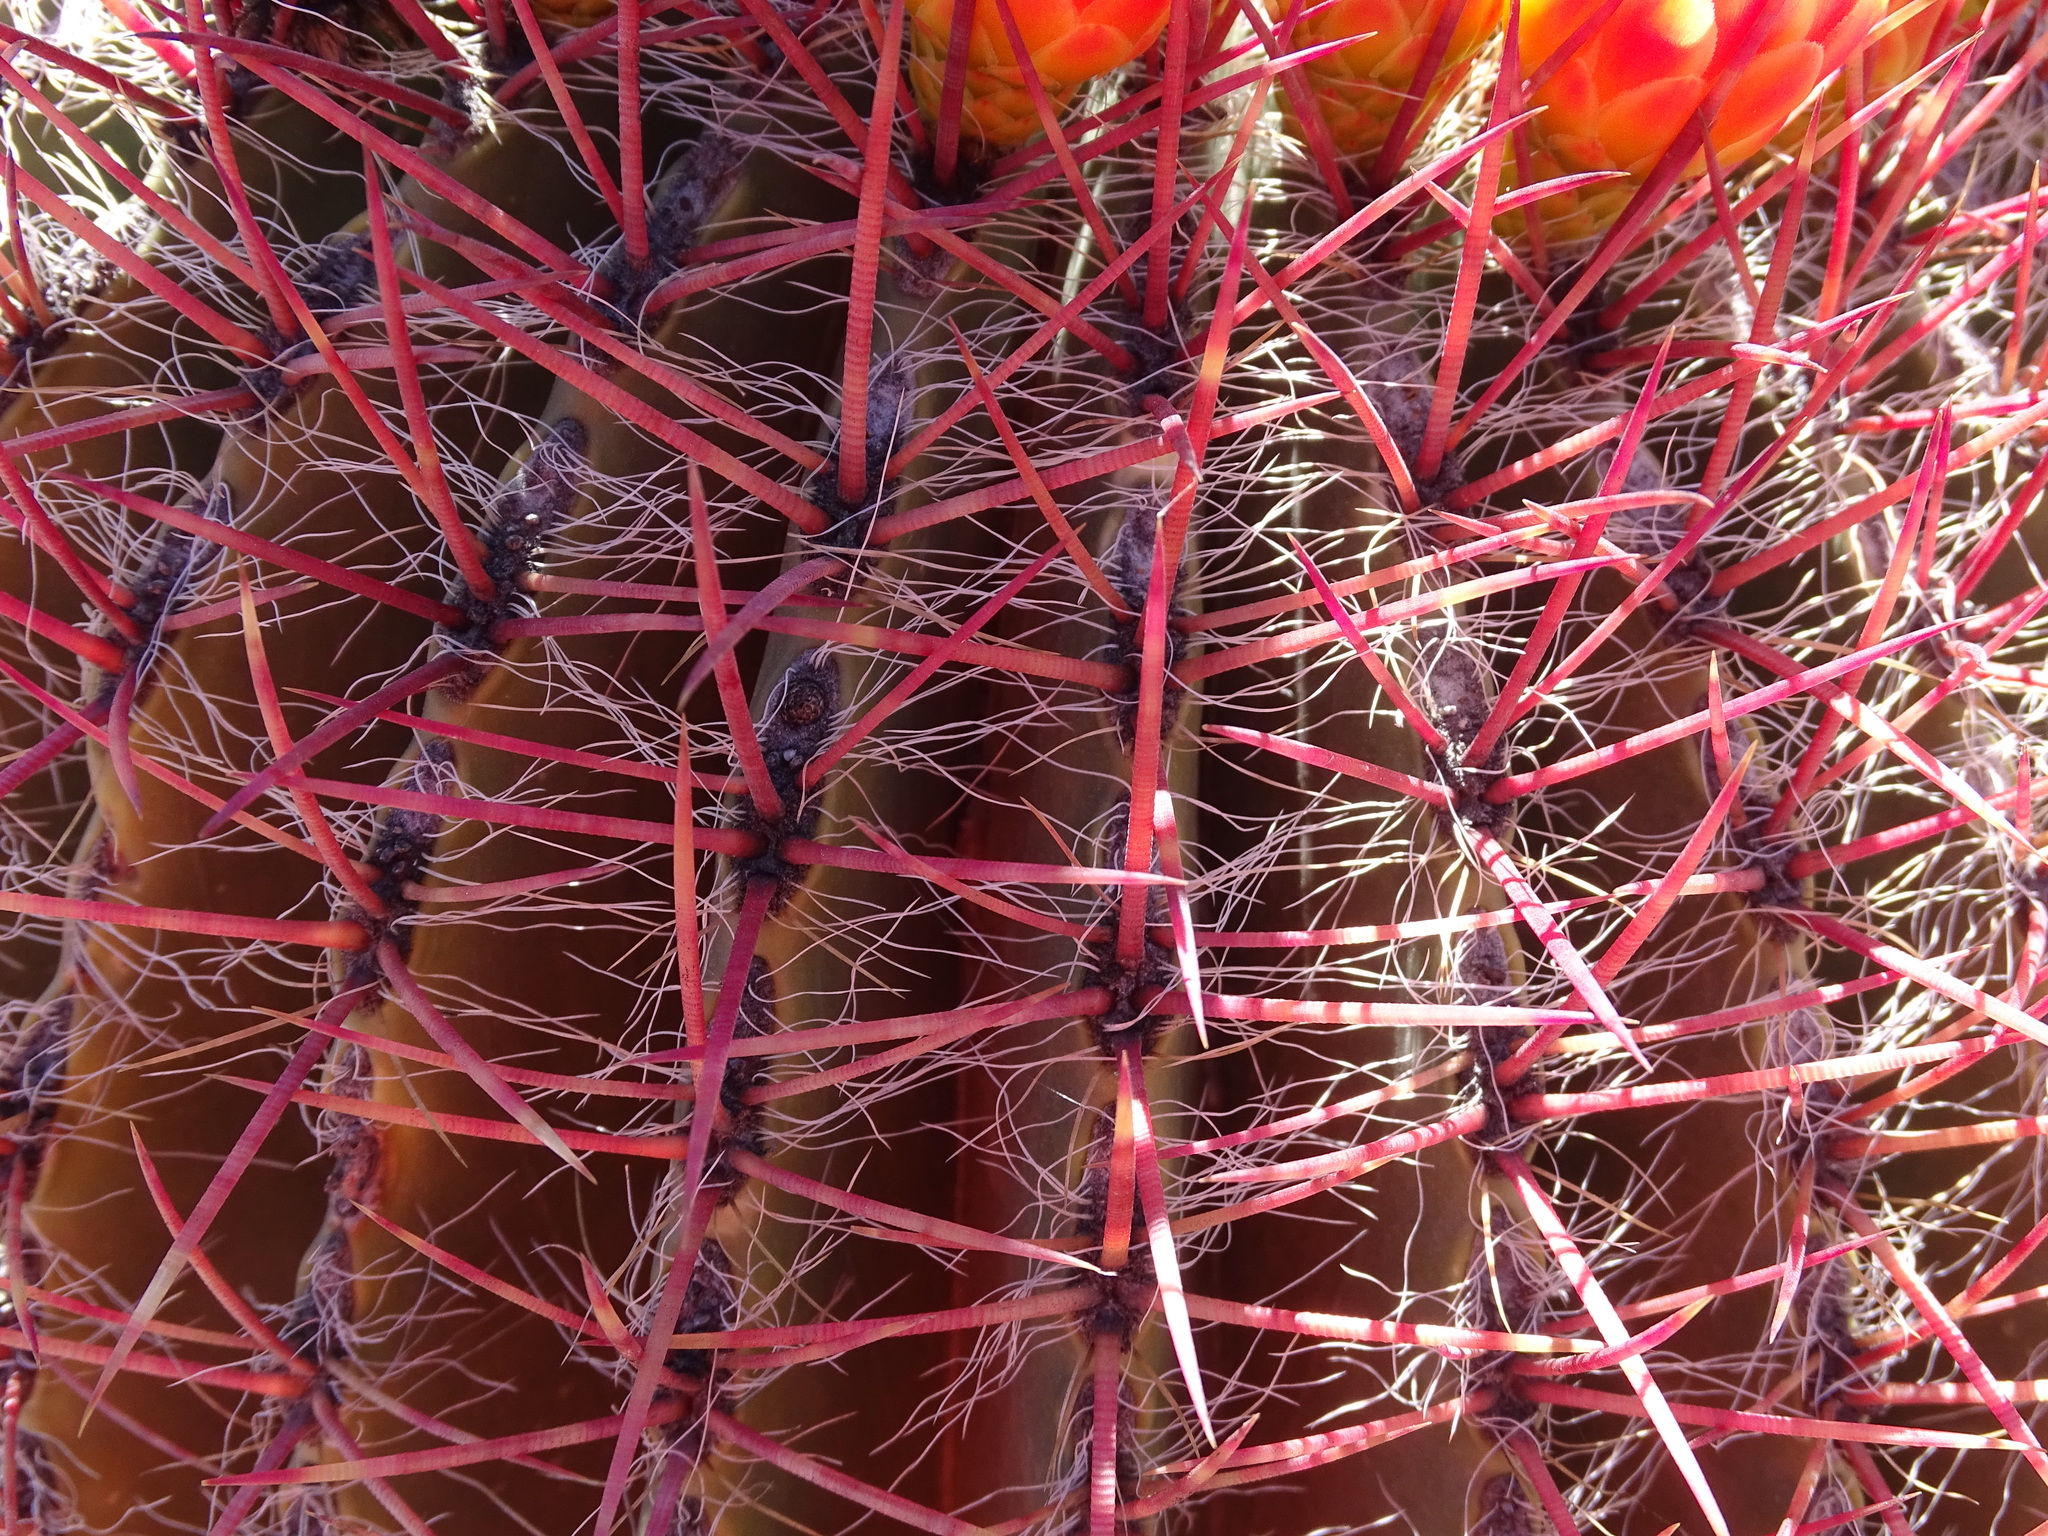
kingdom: Plantae
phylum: Tracheophyta
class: Magnoliopsida
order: Caryophyllales
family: Cactaceae
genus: Ferocactus
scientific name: Ferocactus pilosus
